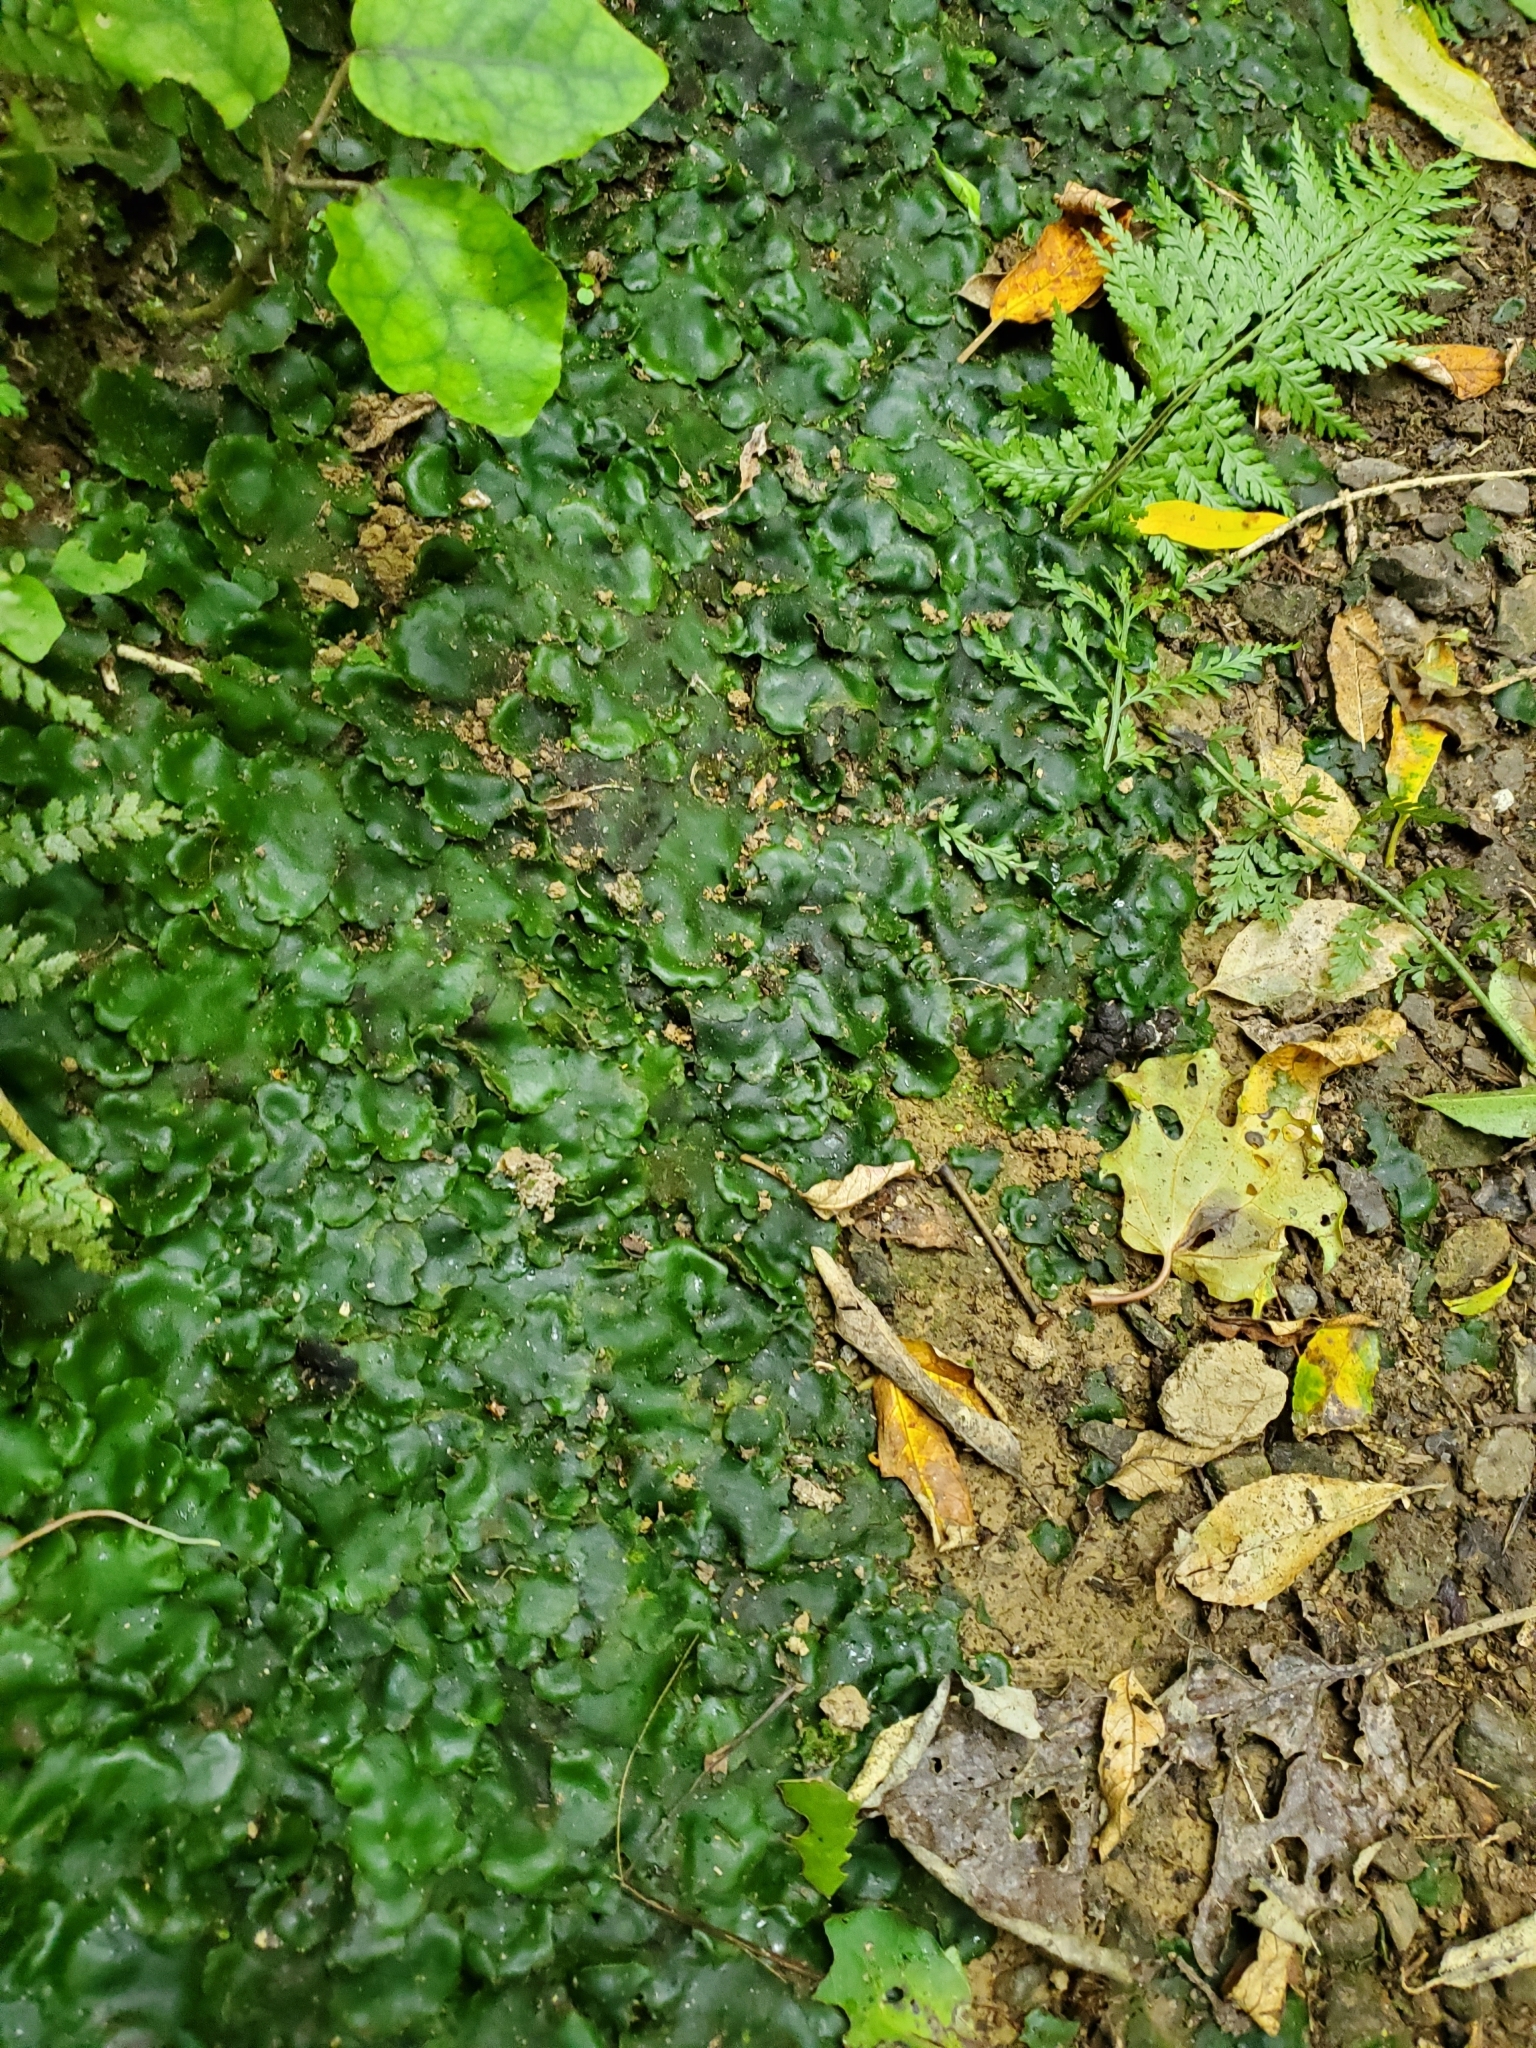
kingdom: Plantae
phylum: Marchantiophyta
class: Marchantiopsida
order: Marchantiales
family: Monocleaceae
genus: Monoclea
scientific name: Monoclea forsteri
